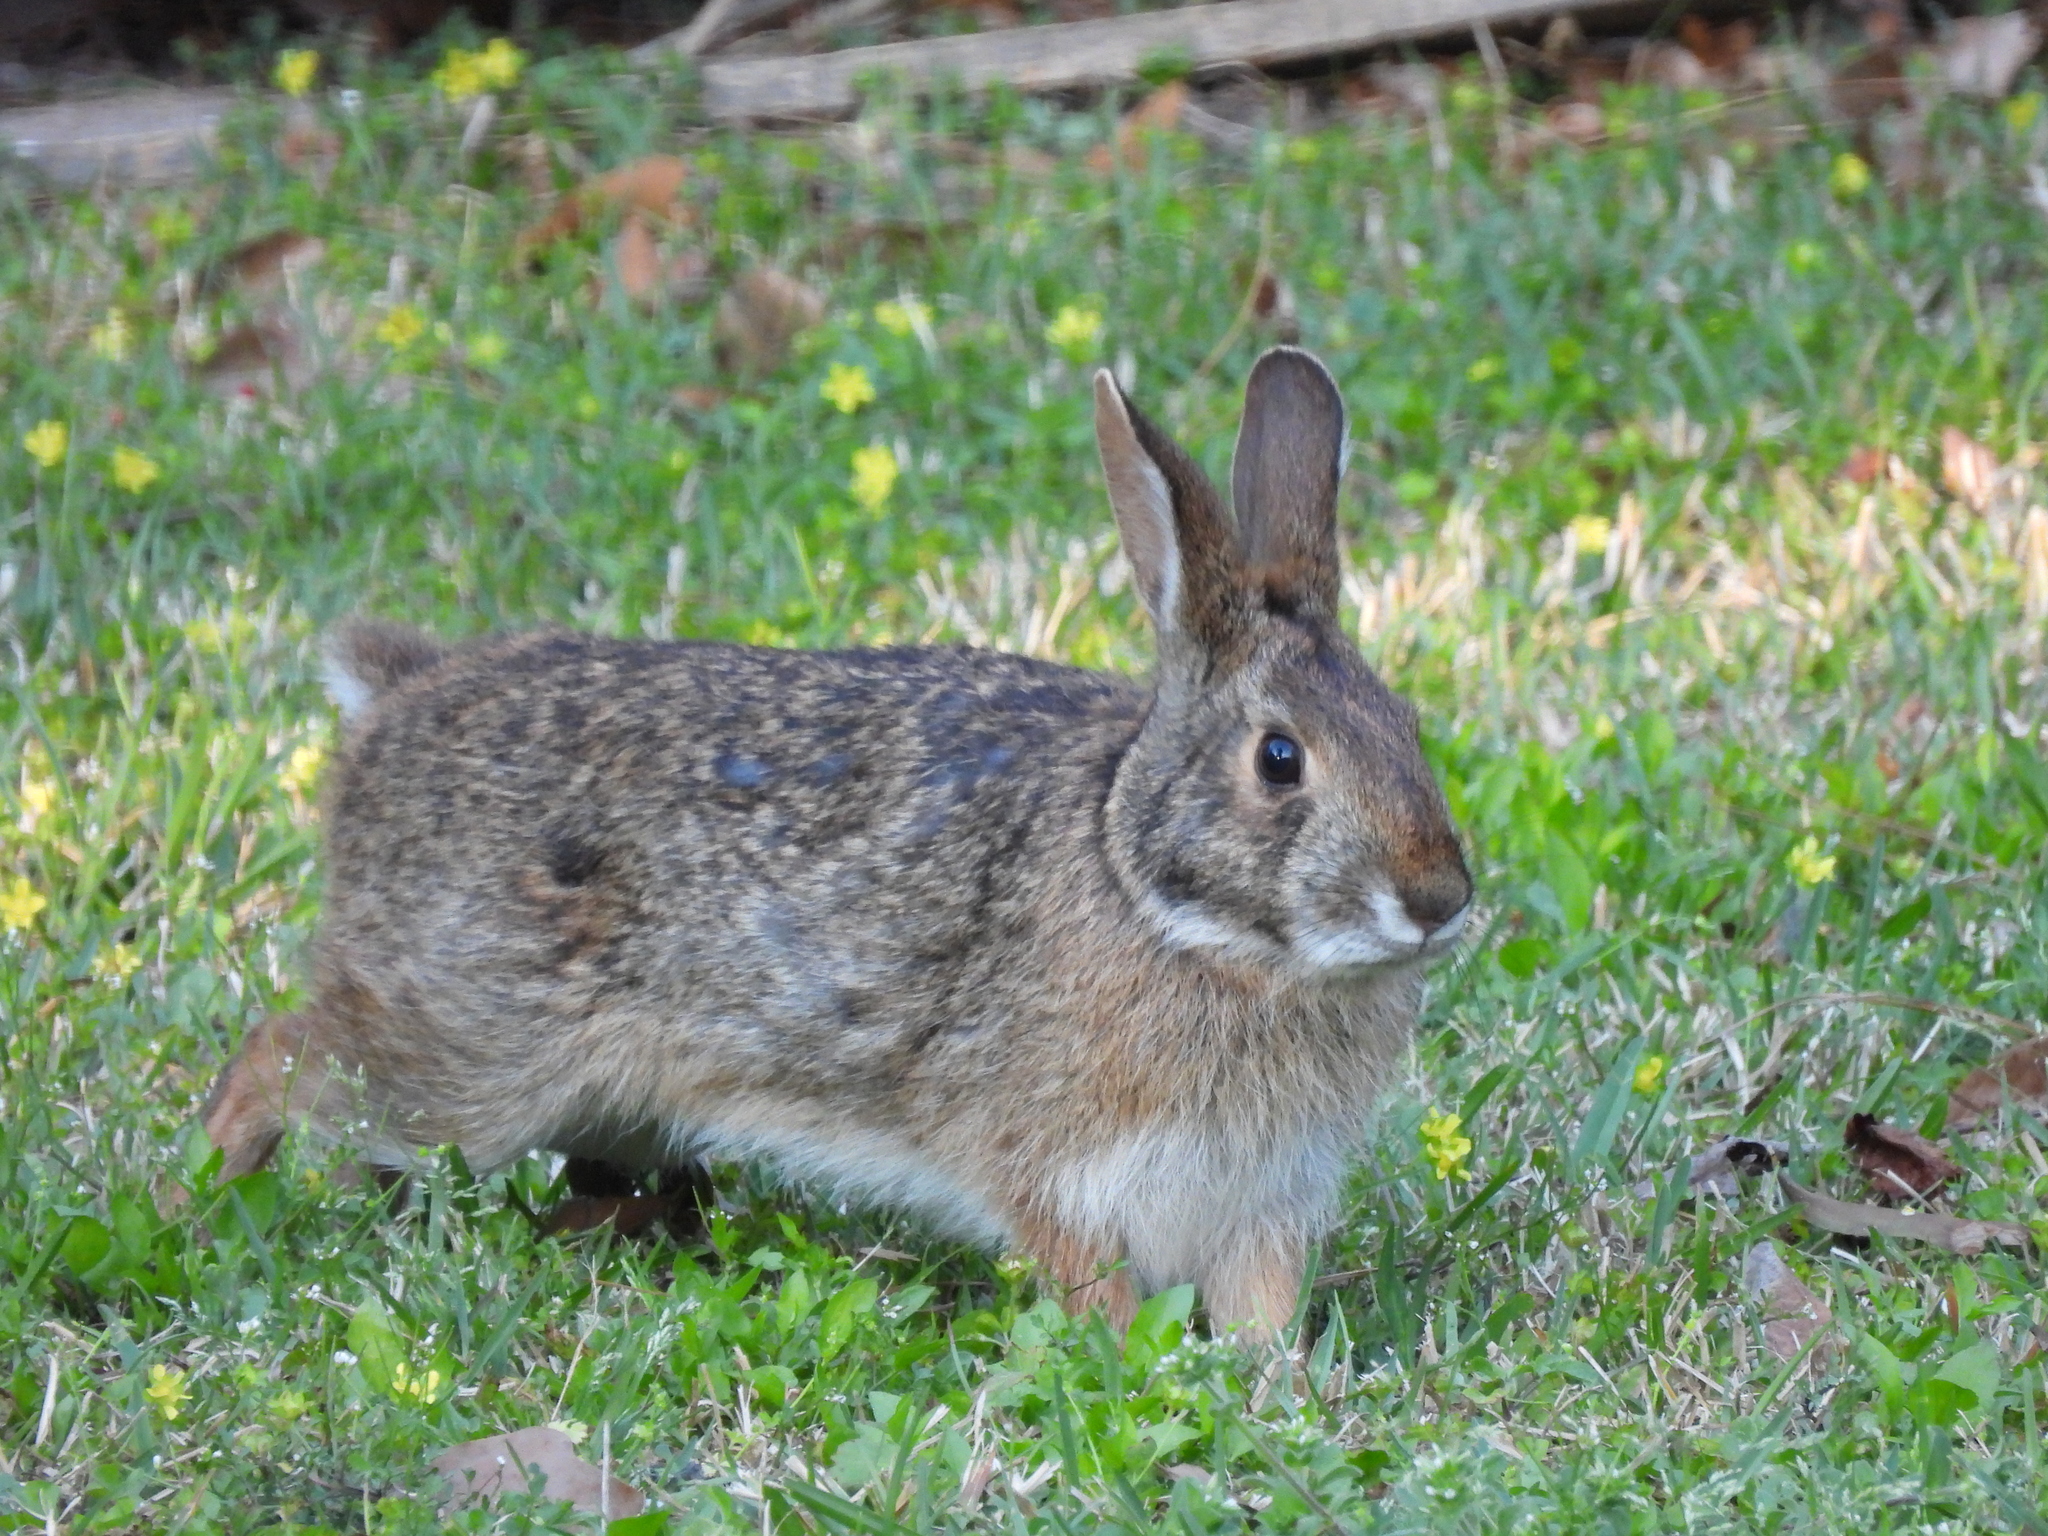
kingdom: Animalia
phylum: Chordata
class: Mammalia
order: Lagomorpha
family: Leporidae
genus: Sylvilagus
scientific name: Sylvilagus aquaticus
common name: Swamp rabbit
